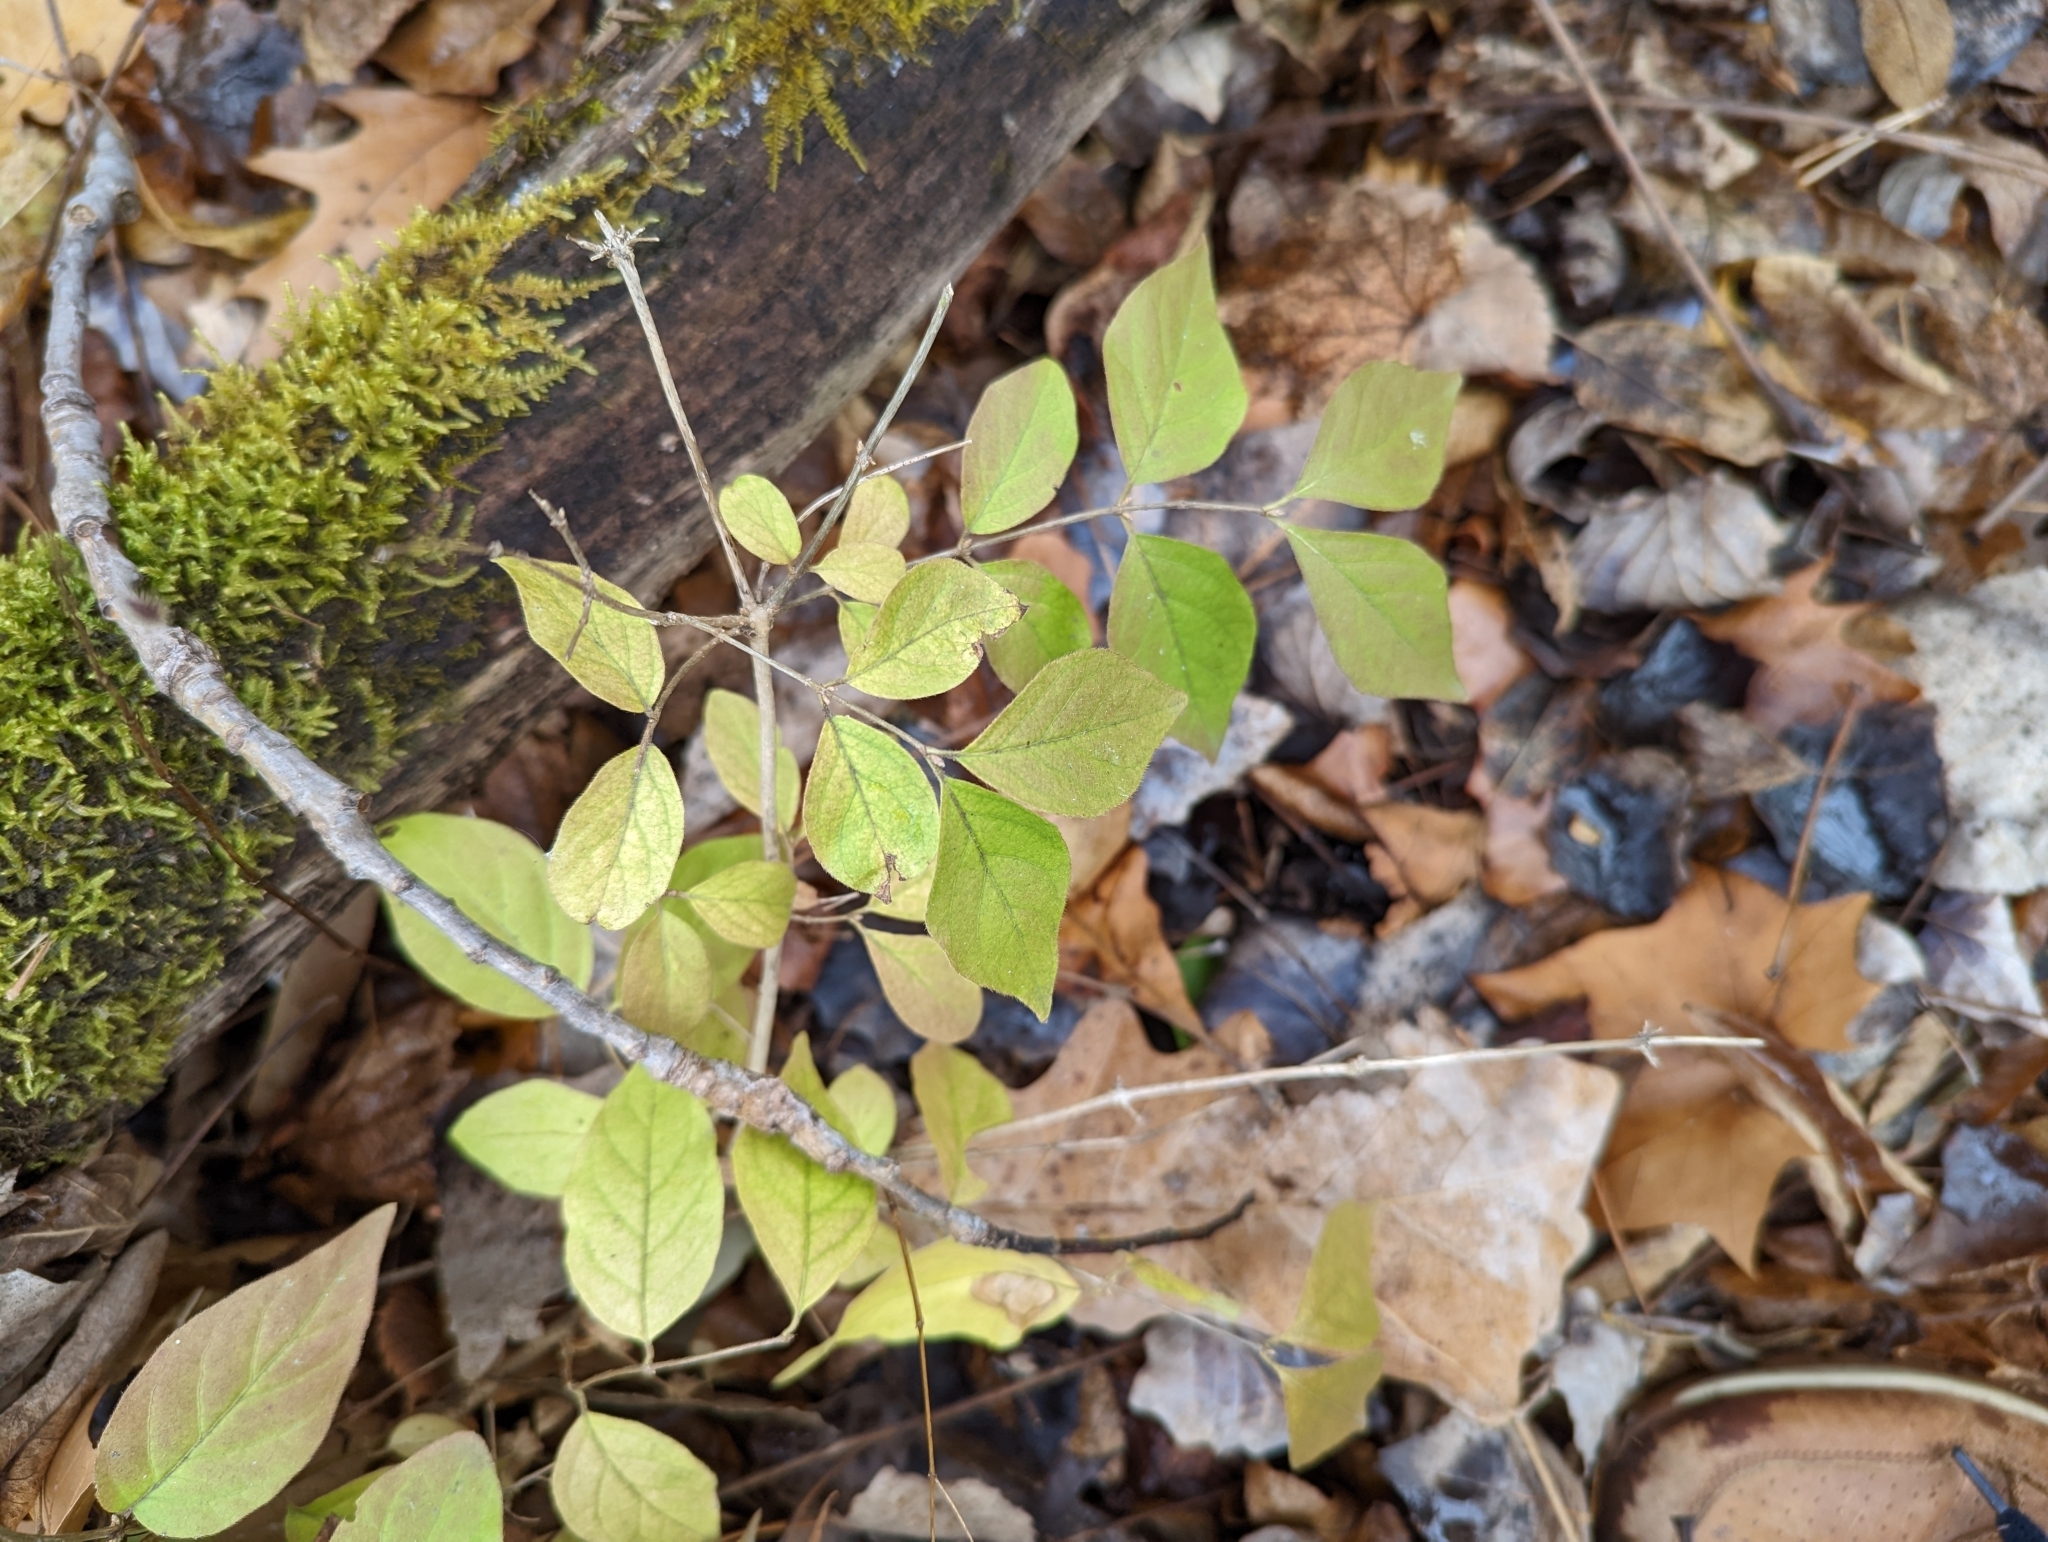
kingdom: Plantae
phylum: Tracheophyta
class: Magnoliopsida
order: Dipsacales
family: Caprifoliaceae
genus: Lonicera
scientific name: Lonicera maackii
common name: Amur honeysuckle
